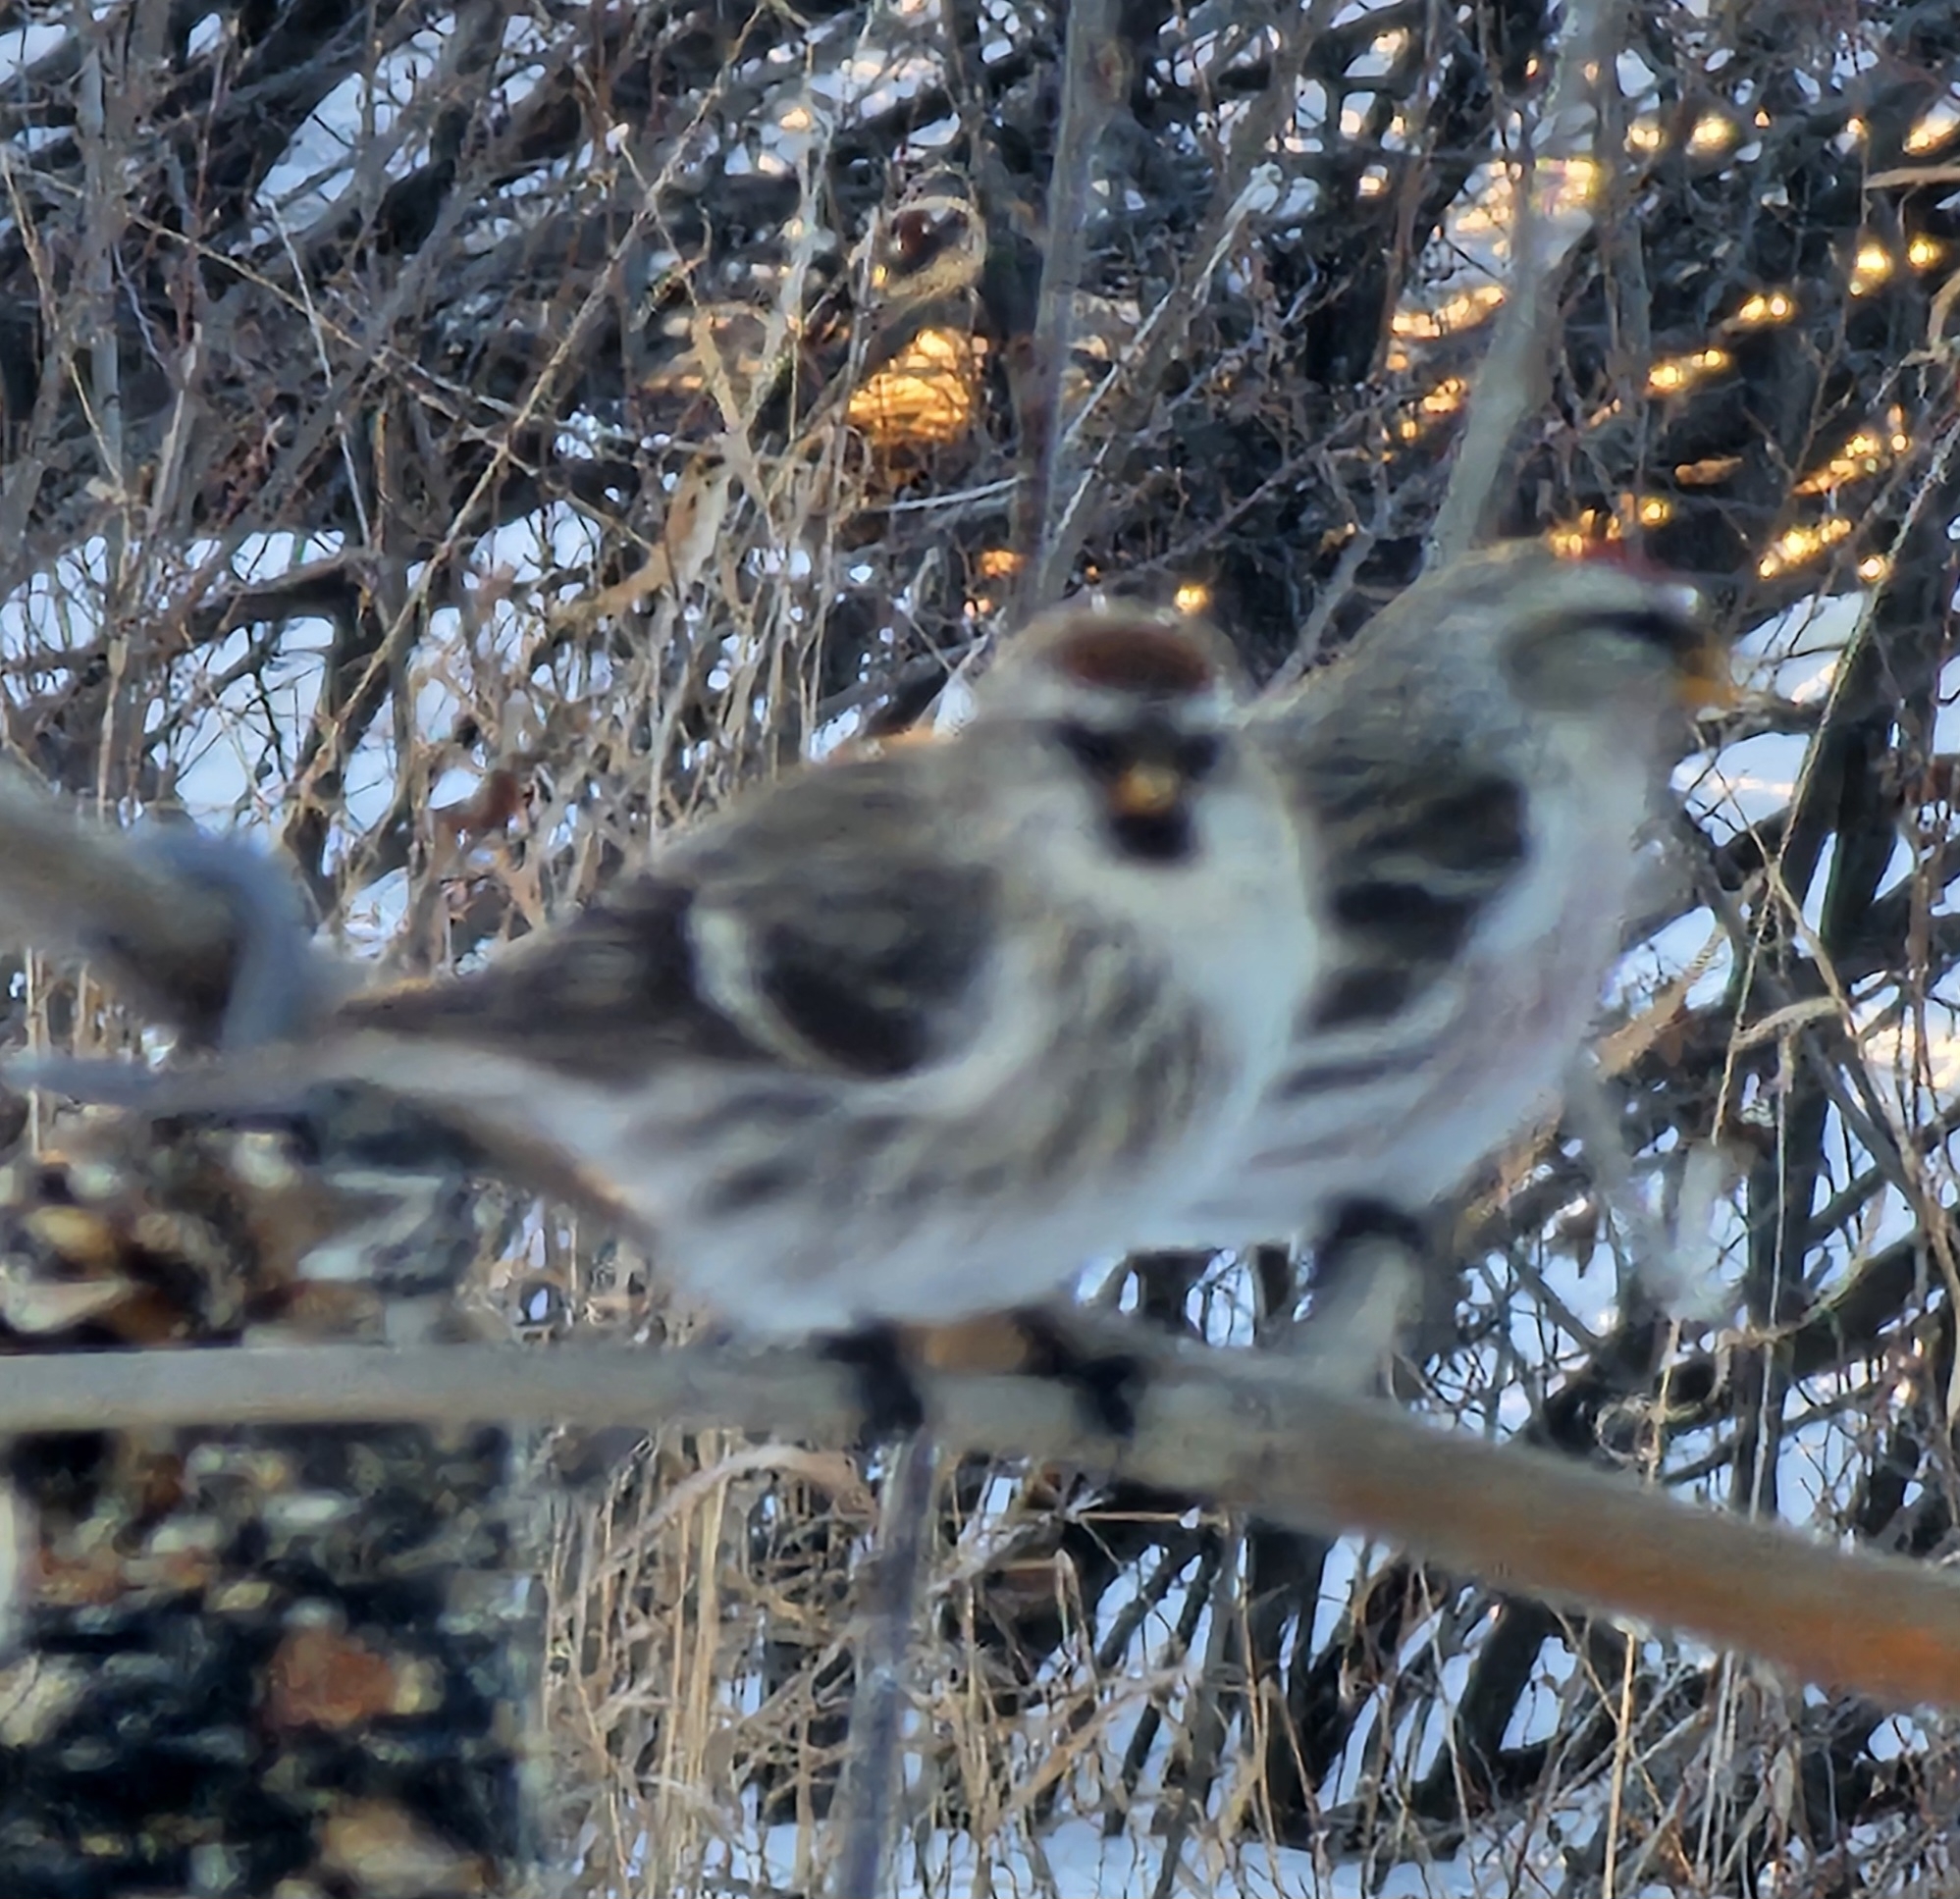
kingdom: Animalia
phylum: Chordata
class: Aves
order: Passeriformes
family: Fringillidae
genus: Acanthis
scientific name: Acanthis flammea
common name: Common redpoll
